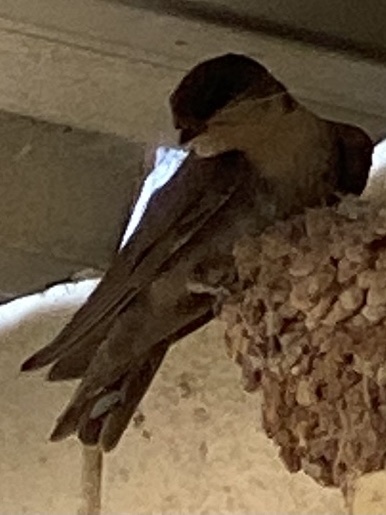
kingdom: Animalia
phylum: Chordata
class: Aves
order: Passeriformes
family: Hirundinidae
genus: Ptyonoprogne
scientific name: Ptyonoprogne fuligula
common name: Rock martin
